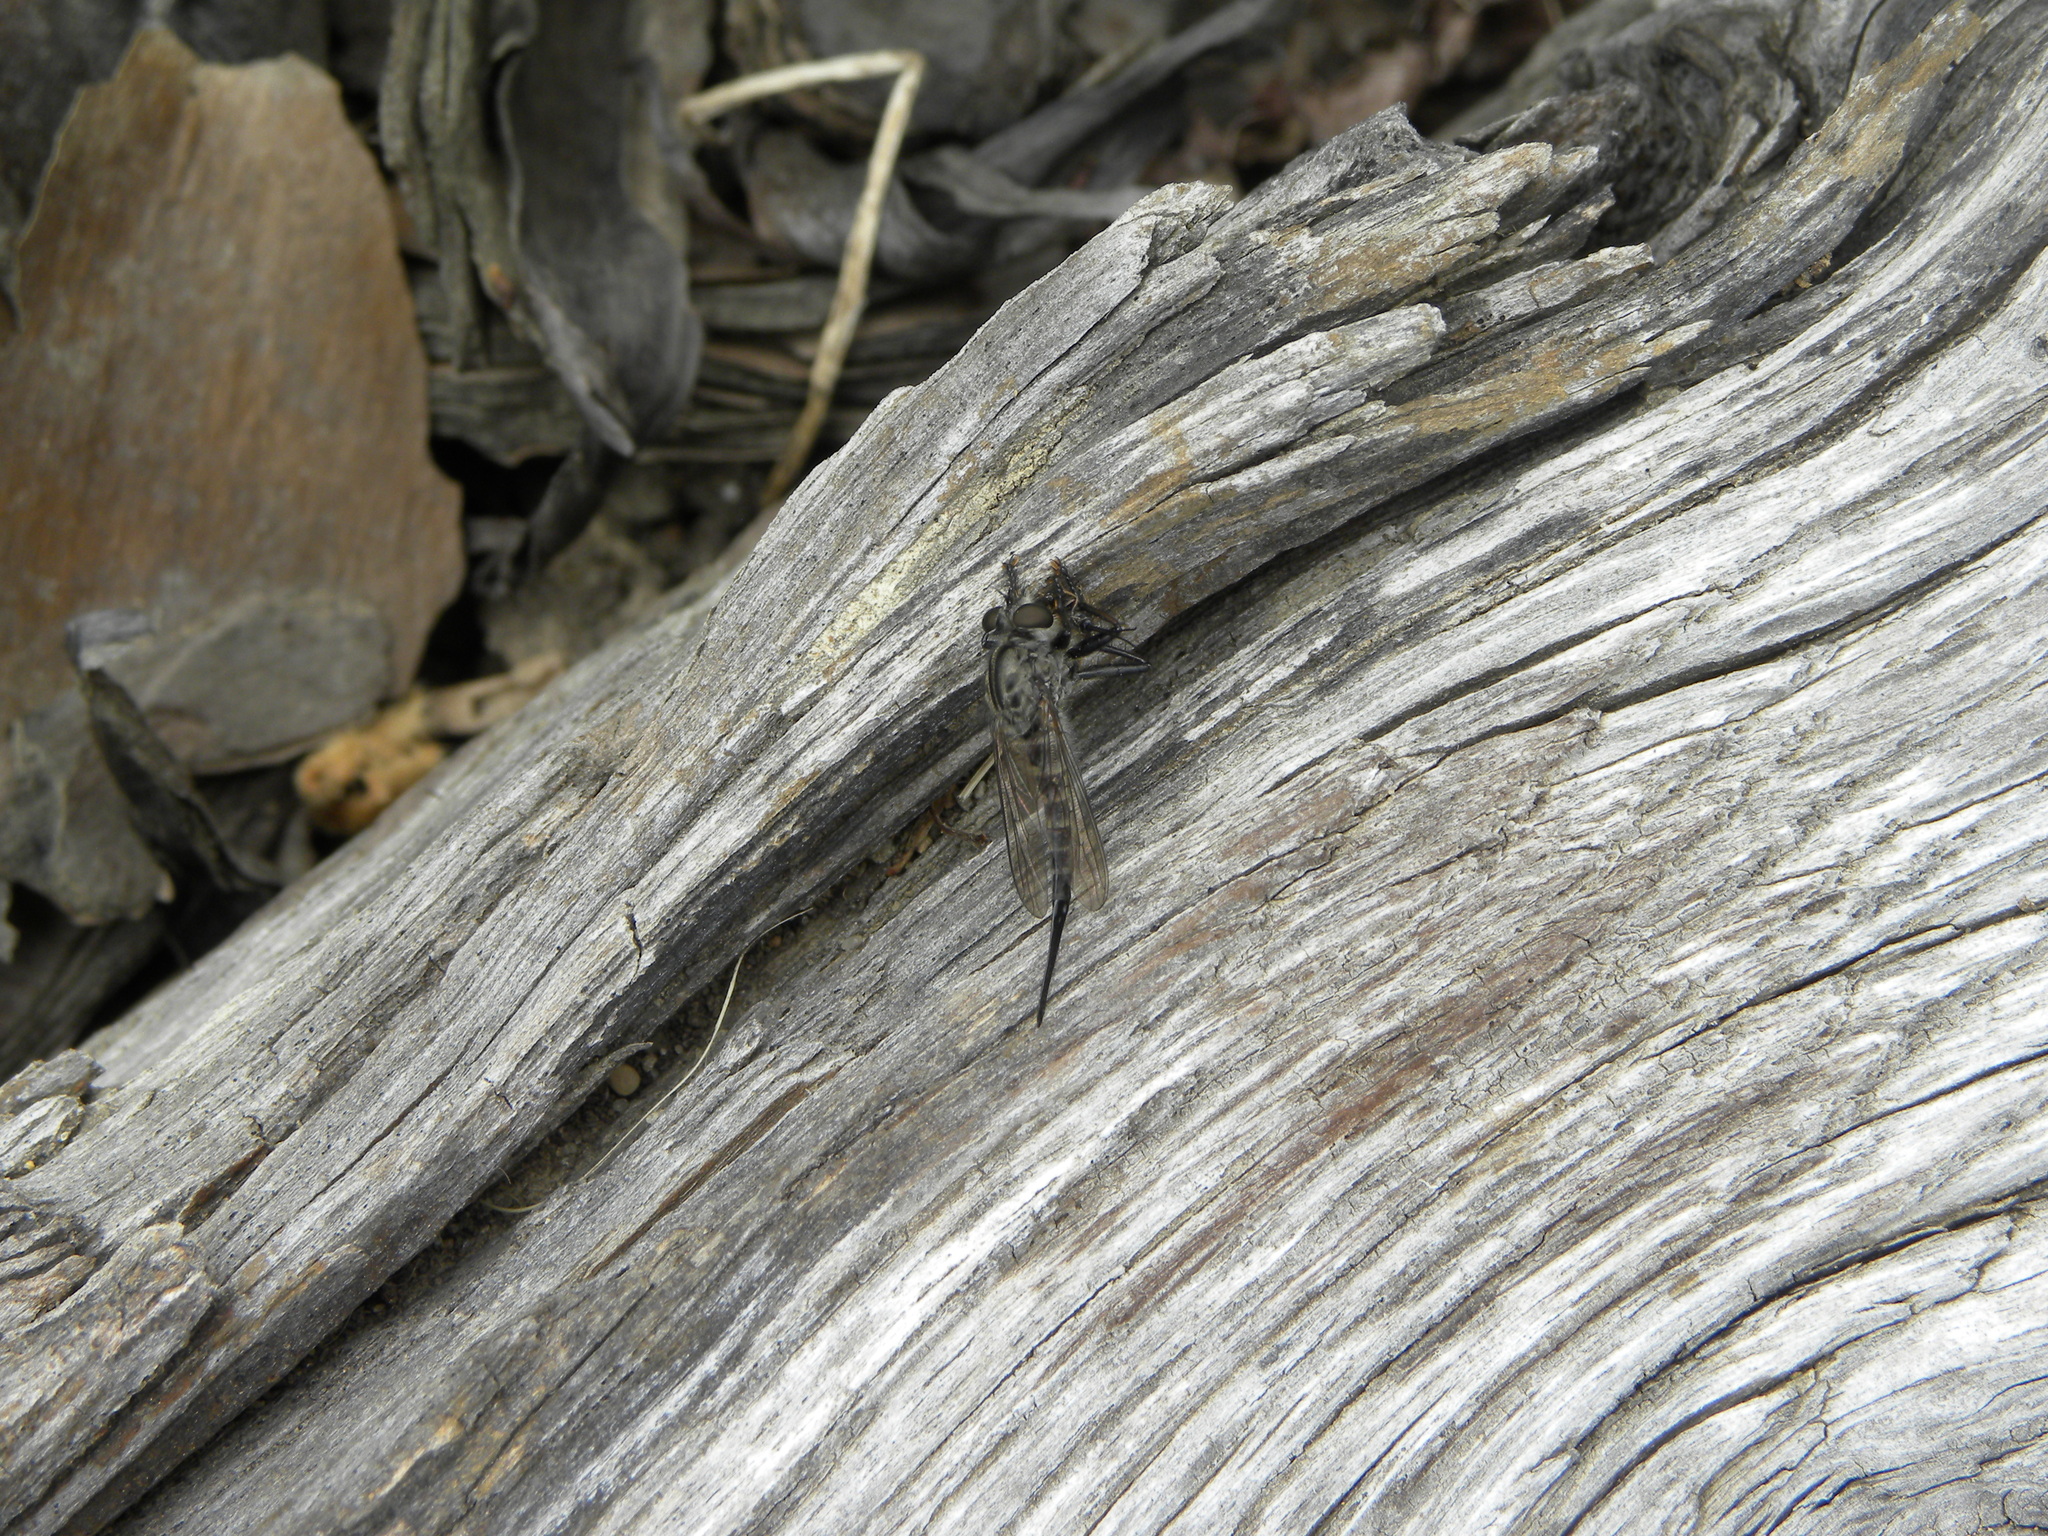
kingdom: Animalia
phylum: Arthropoda
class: Insecta
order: Diptera
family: Asilidae
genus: Efferia
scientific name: Efferia aestuans
